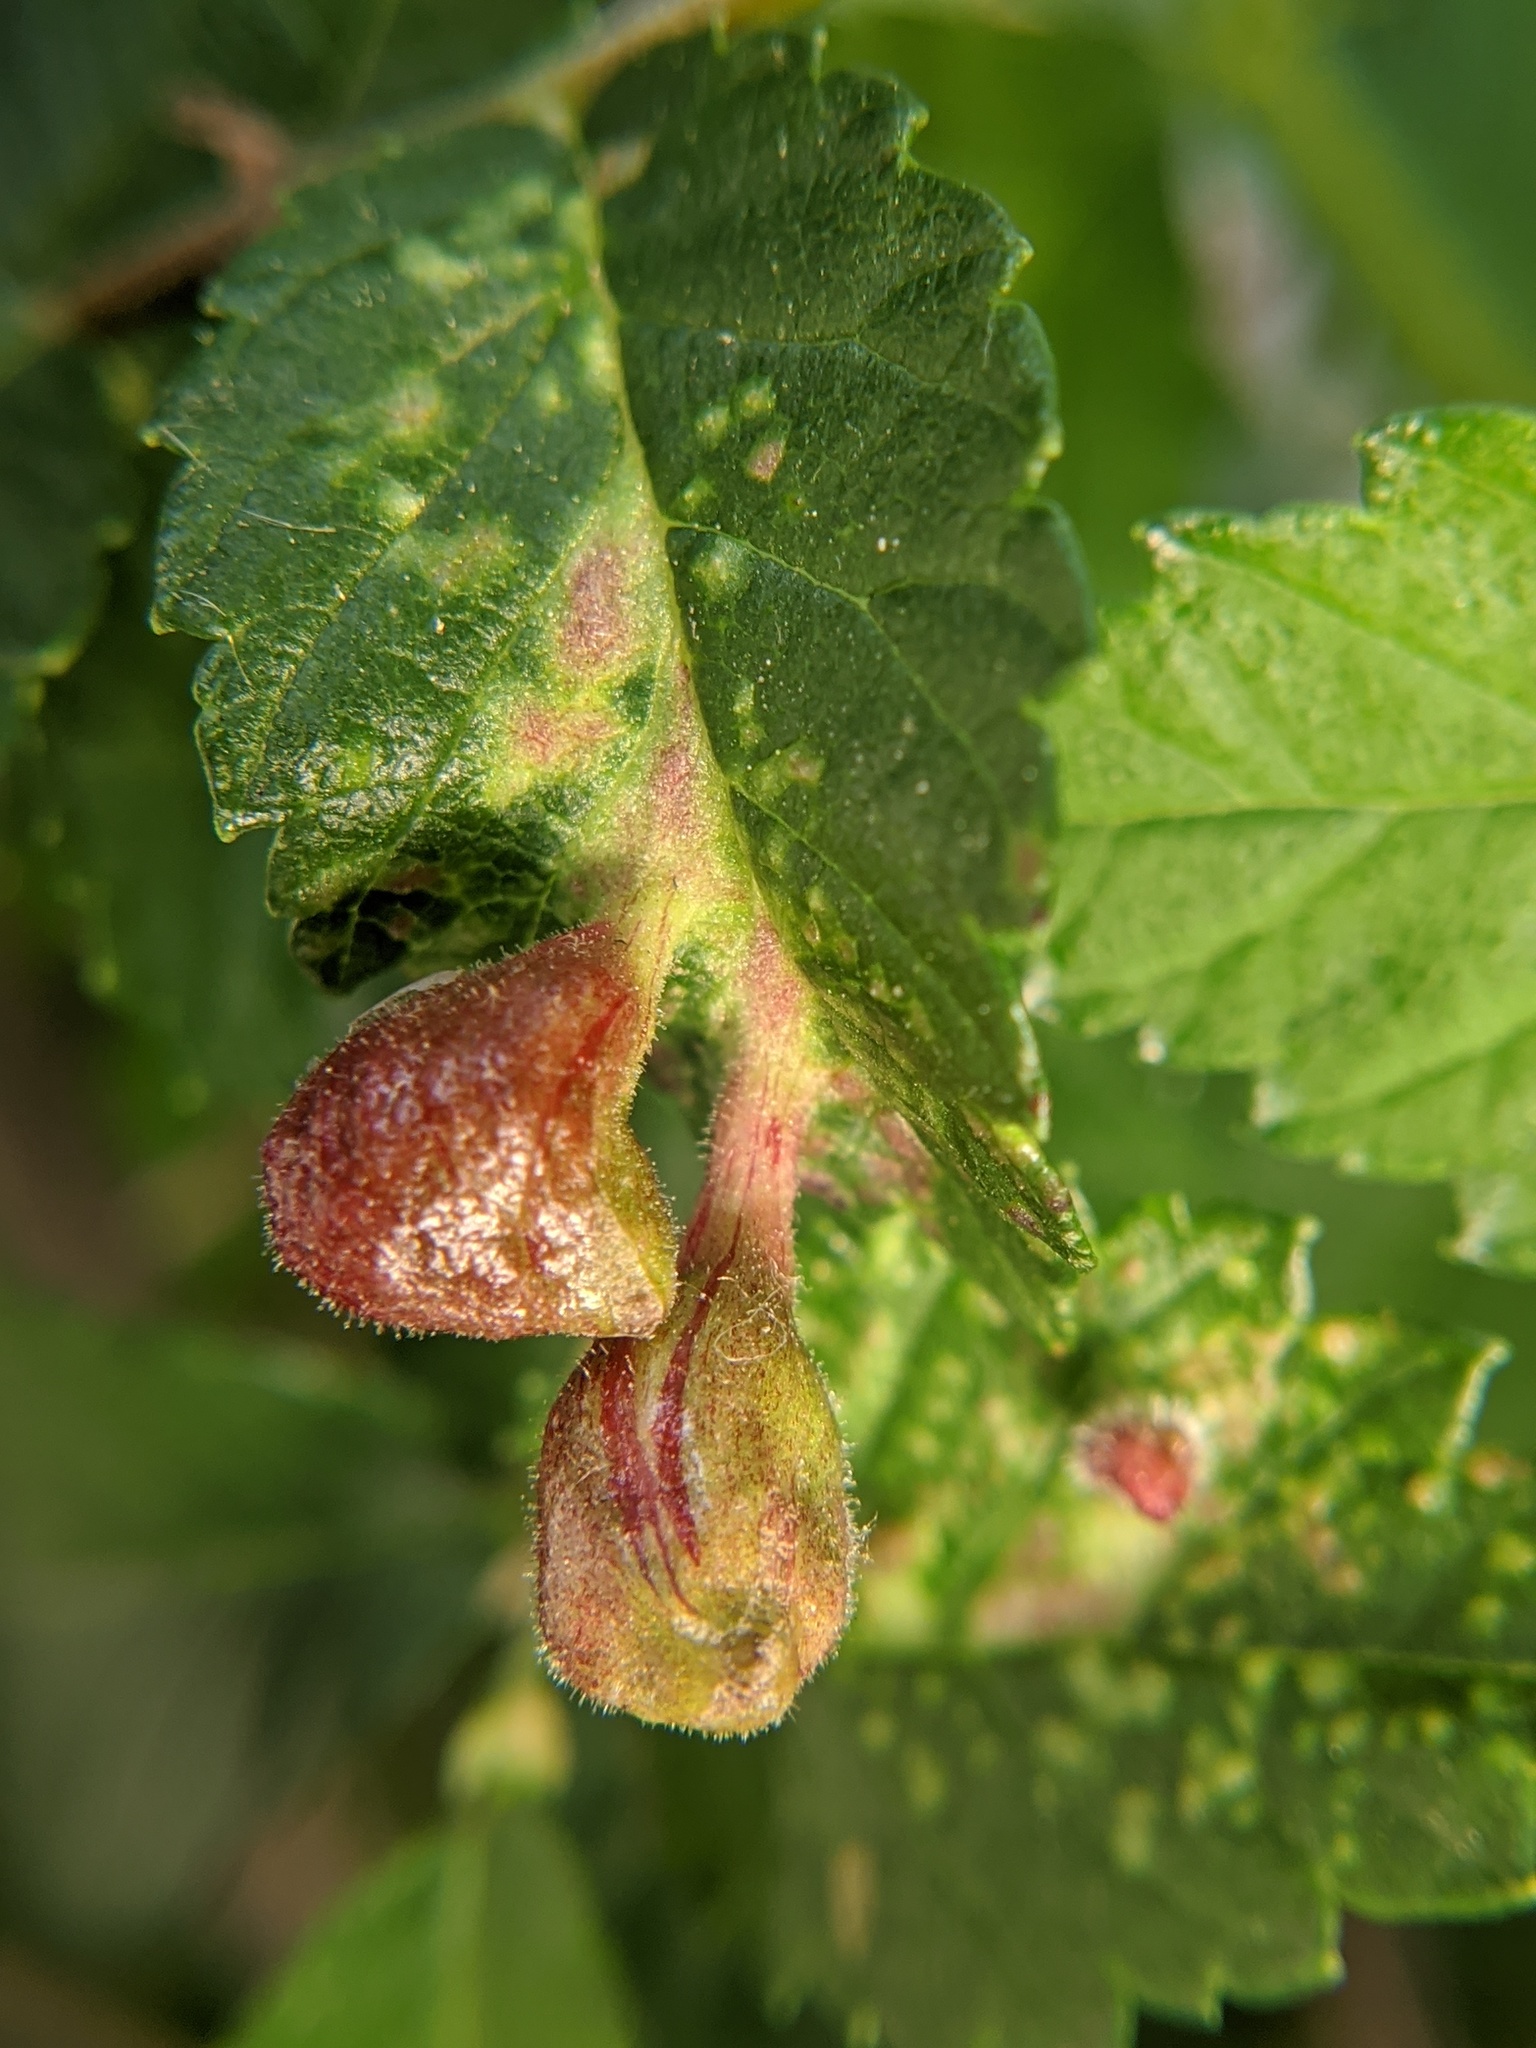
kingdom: Animalia
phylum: Arthropoda
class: Insecta
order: Hemiptera
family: Aphididae
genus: Tetraneura
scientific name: Tetraneura nigriabdominalis
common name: Aphid
